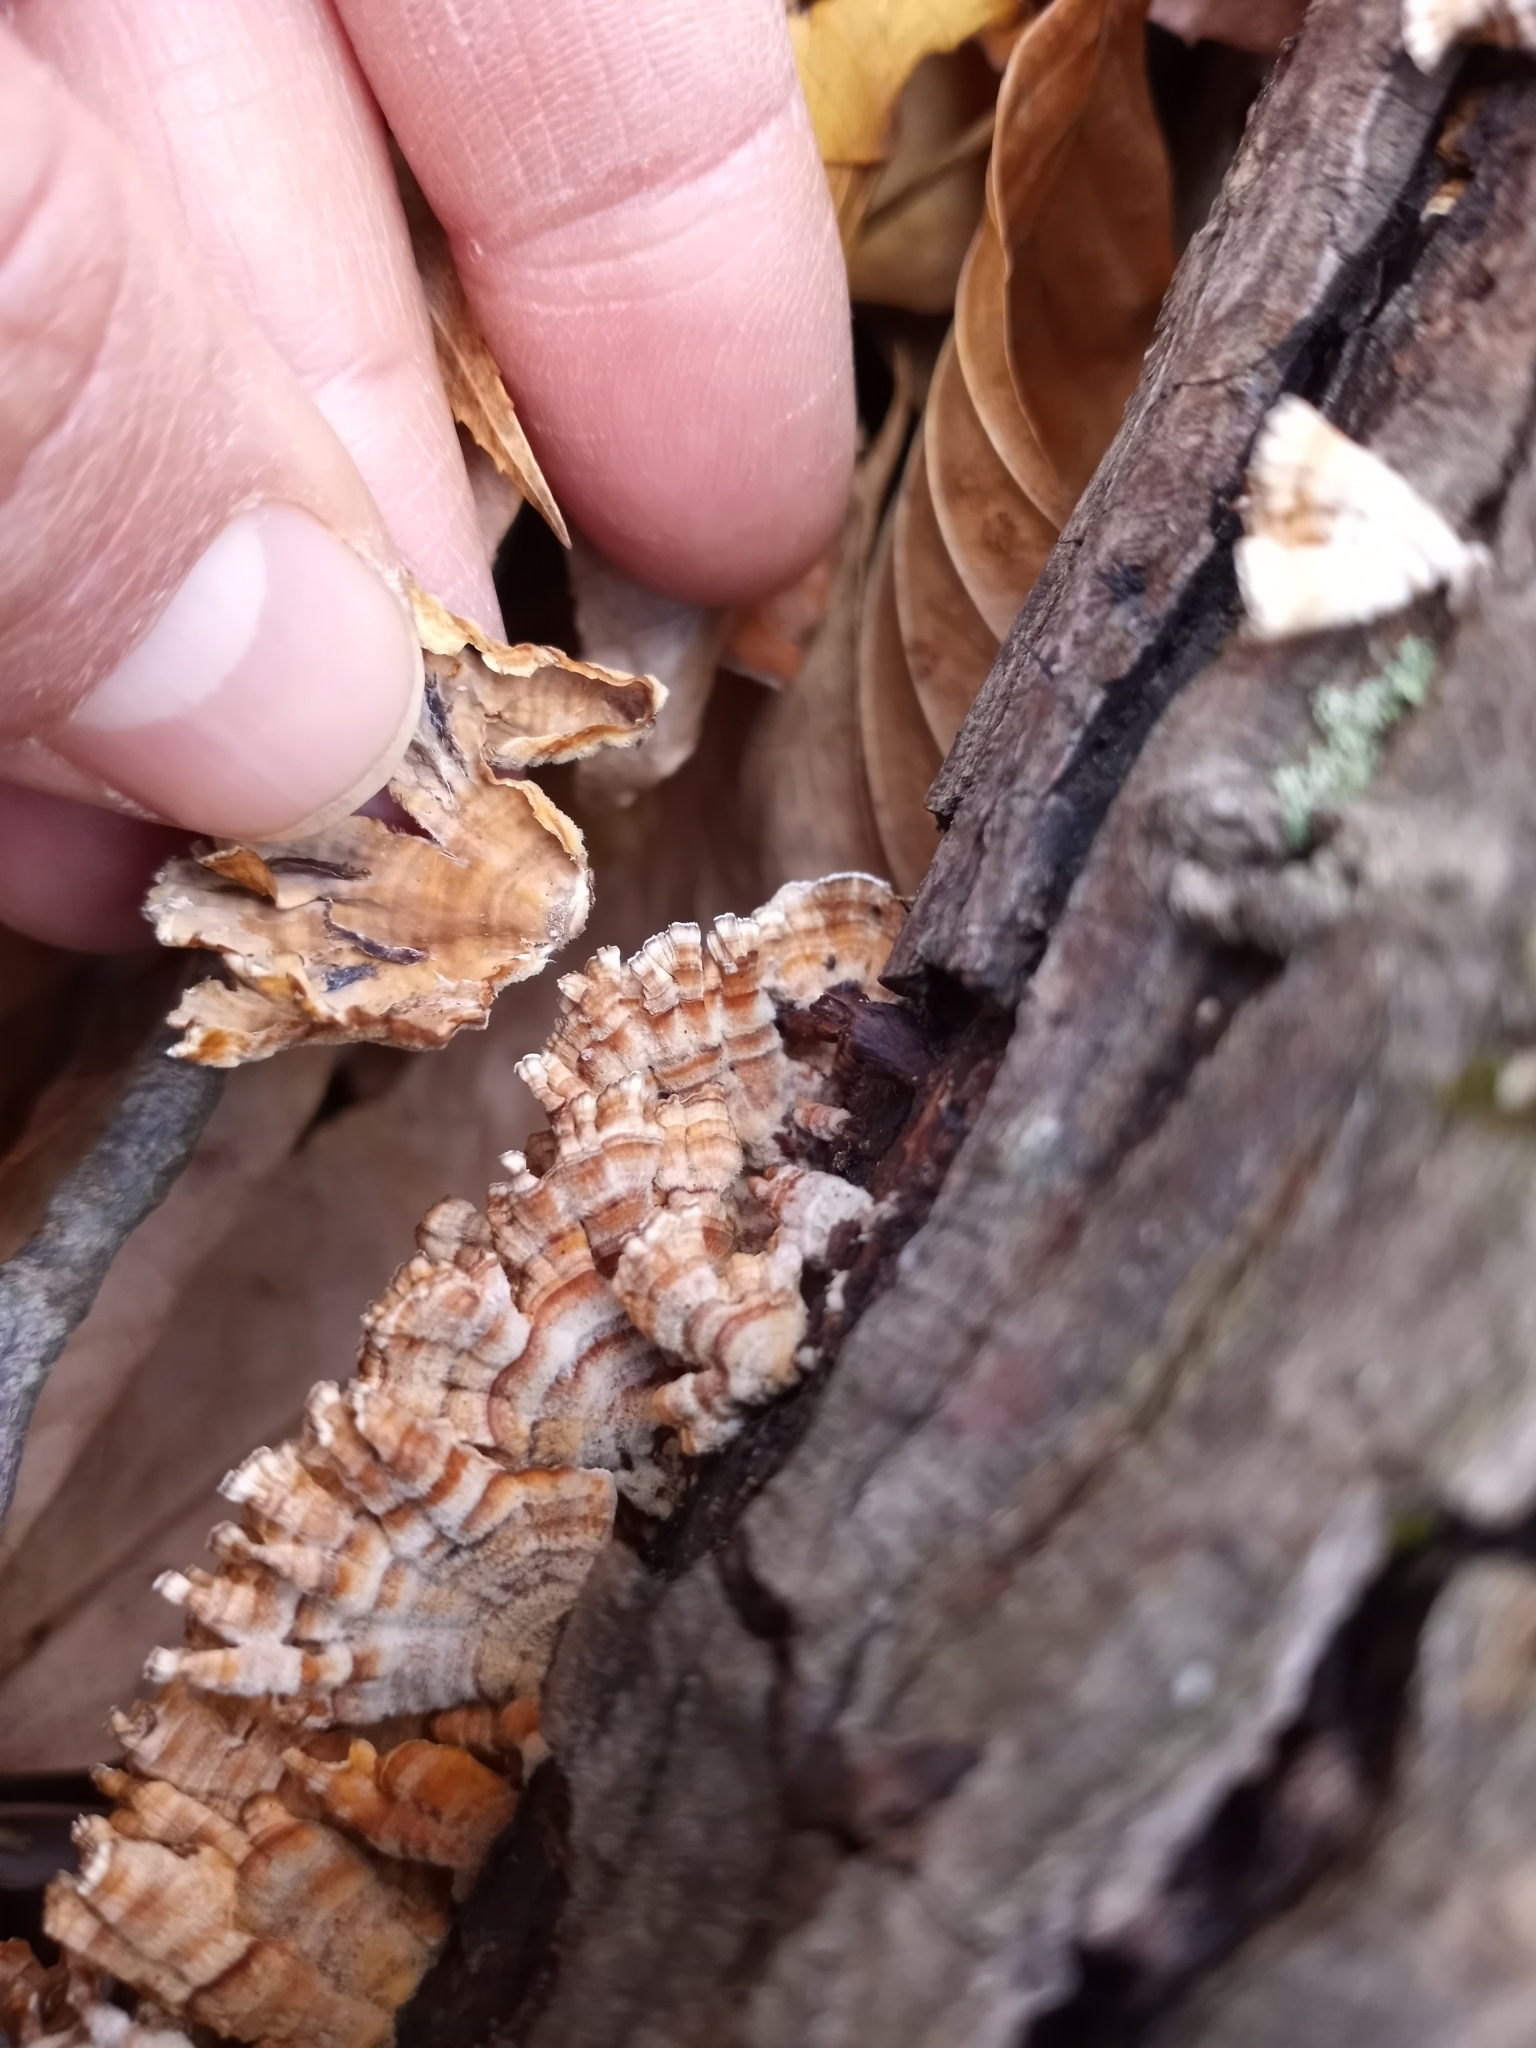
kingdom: Fungi
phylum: Basidiomycota
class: Agaricomycetes
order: Russulales
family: Stereaceae
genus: Stereum
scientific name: Stereum complicatum
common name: Crowded parchment
